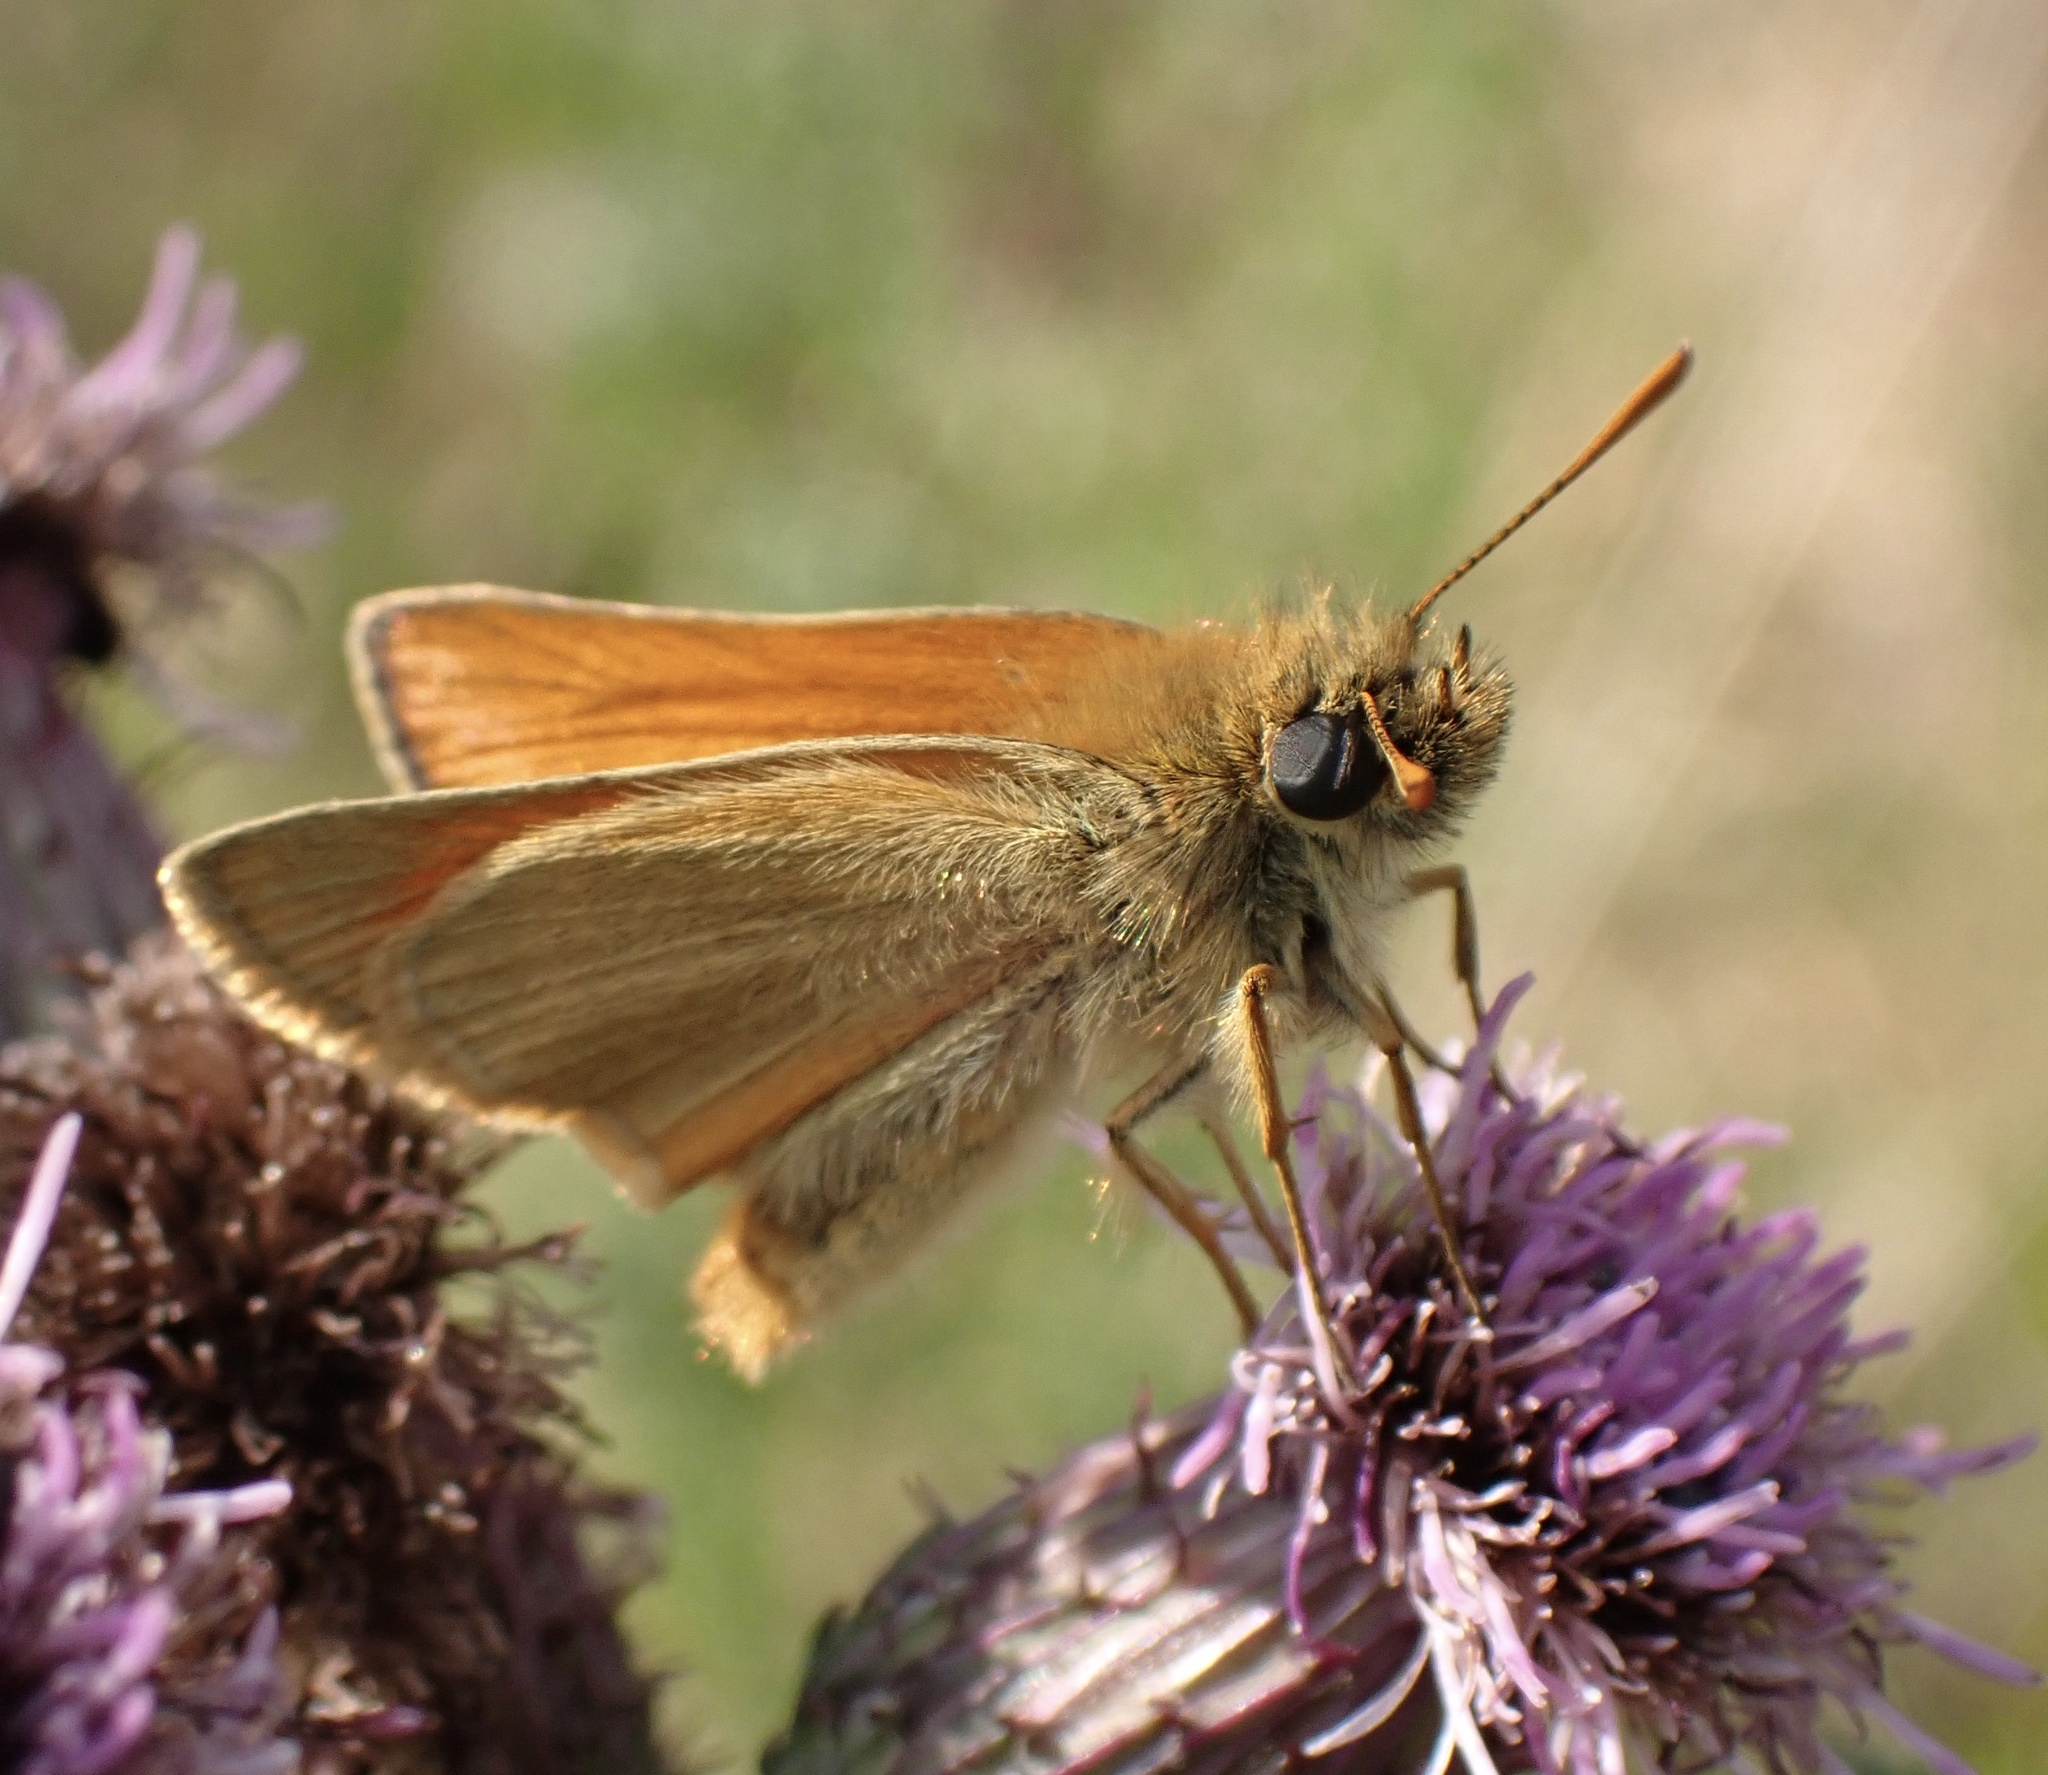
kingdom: Animalia
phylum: Arthropoda
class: Insecta
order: Lepidoptera
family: Hesperiidae
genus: Thymelicus
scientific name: Thymelicus sylvestris
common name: Small skipper
